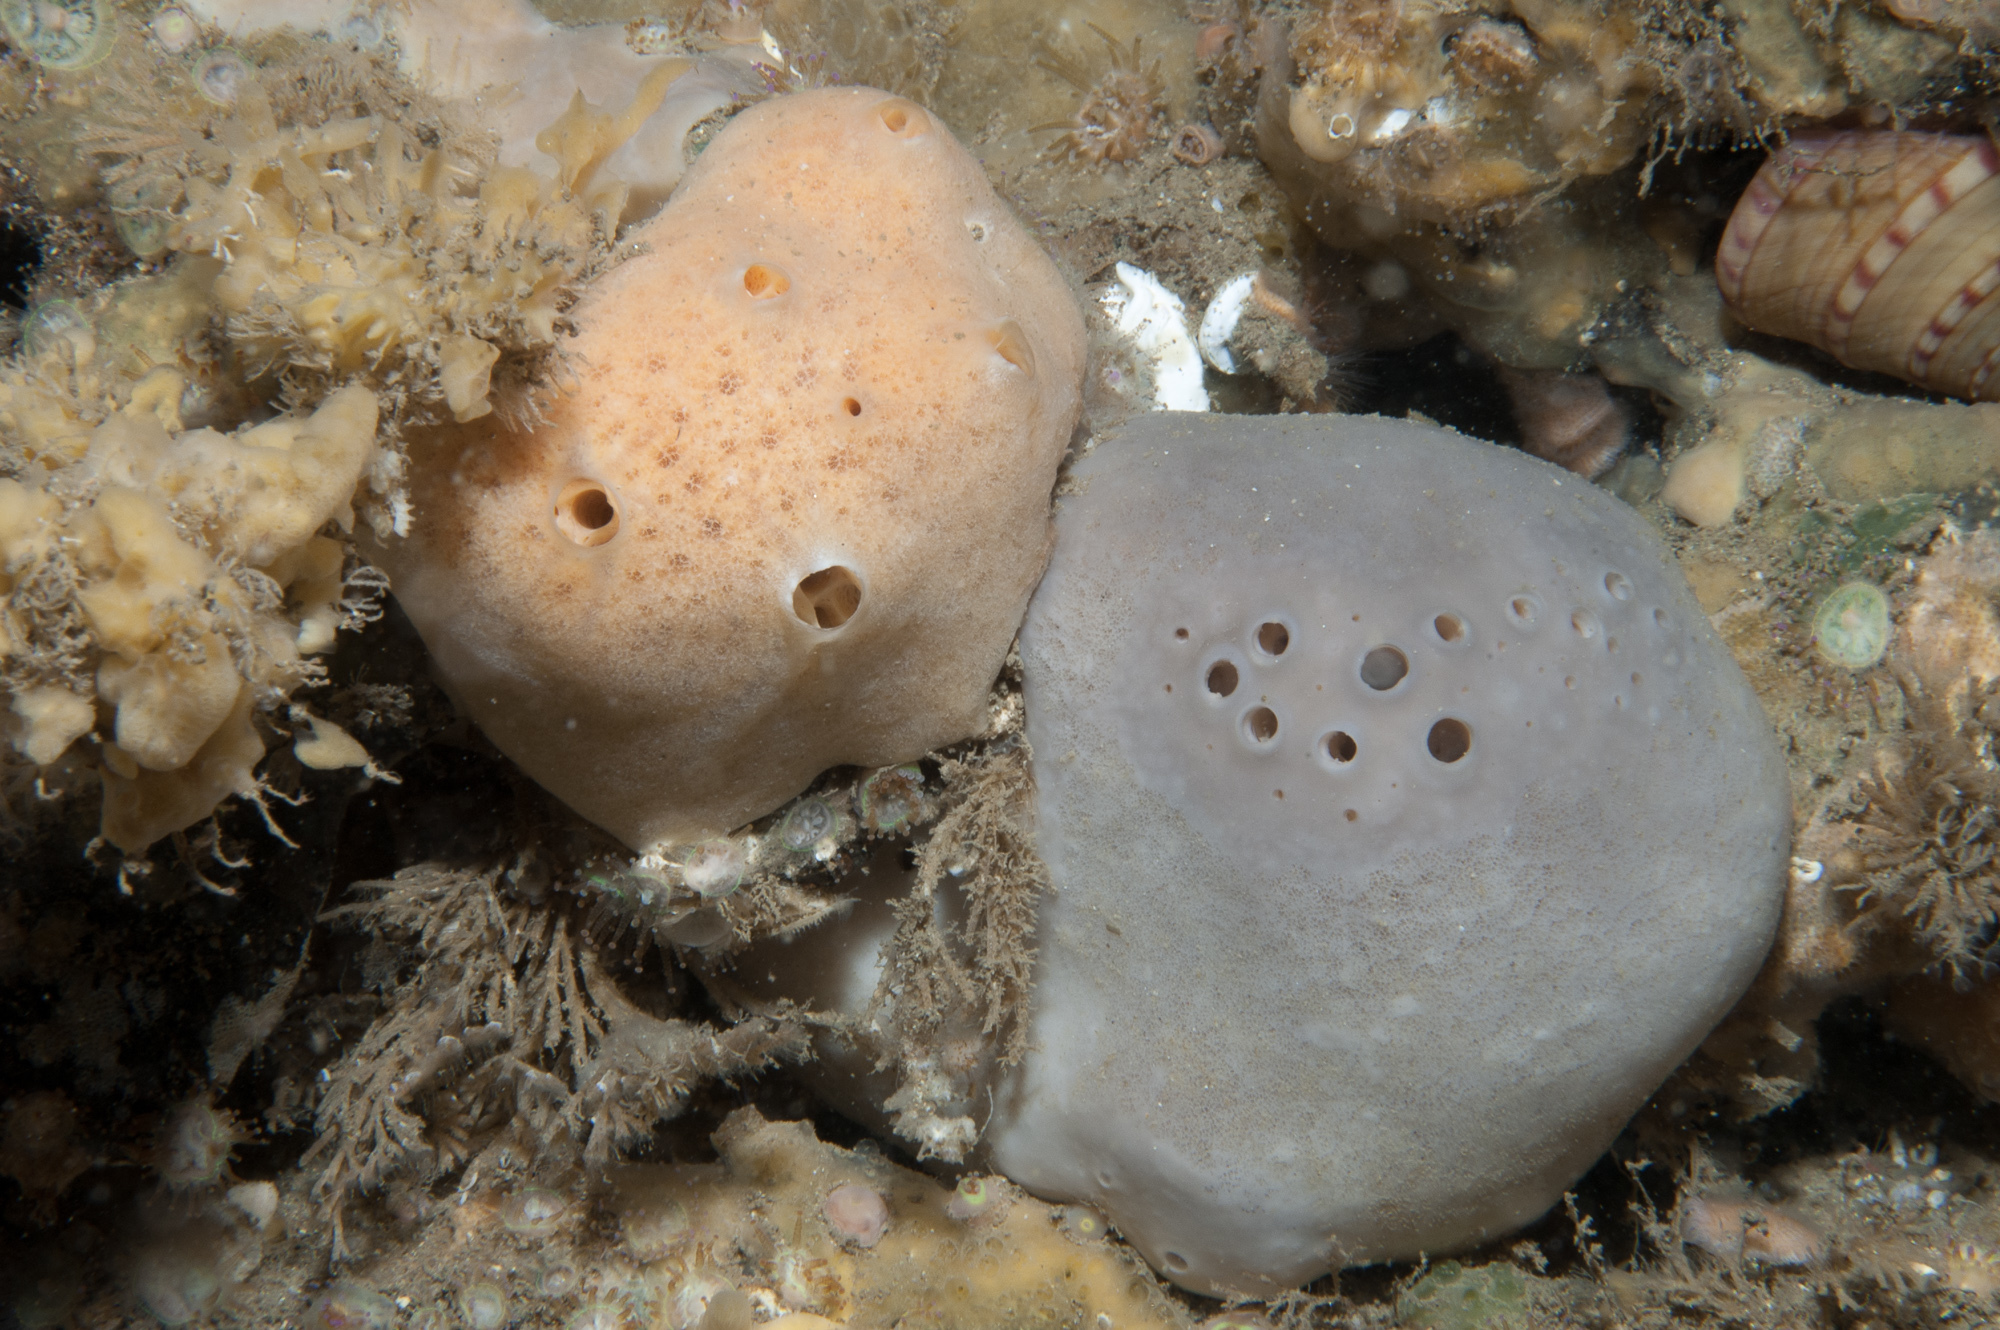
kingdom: Animalia
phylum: Porifera
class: Demospongiae
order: Tetractinellida
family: Geodiidae
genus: Pachymatisma
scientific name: Pachymatisma johnstonia
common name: Elephant ear sponge
